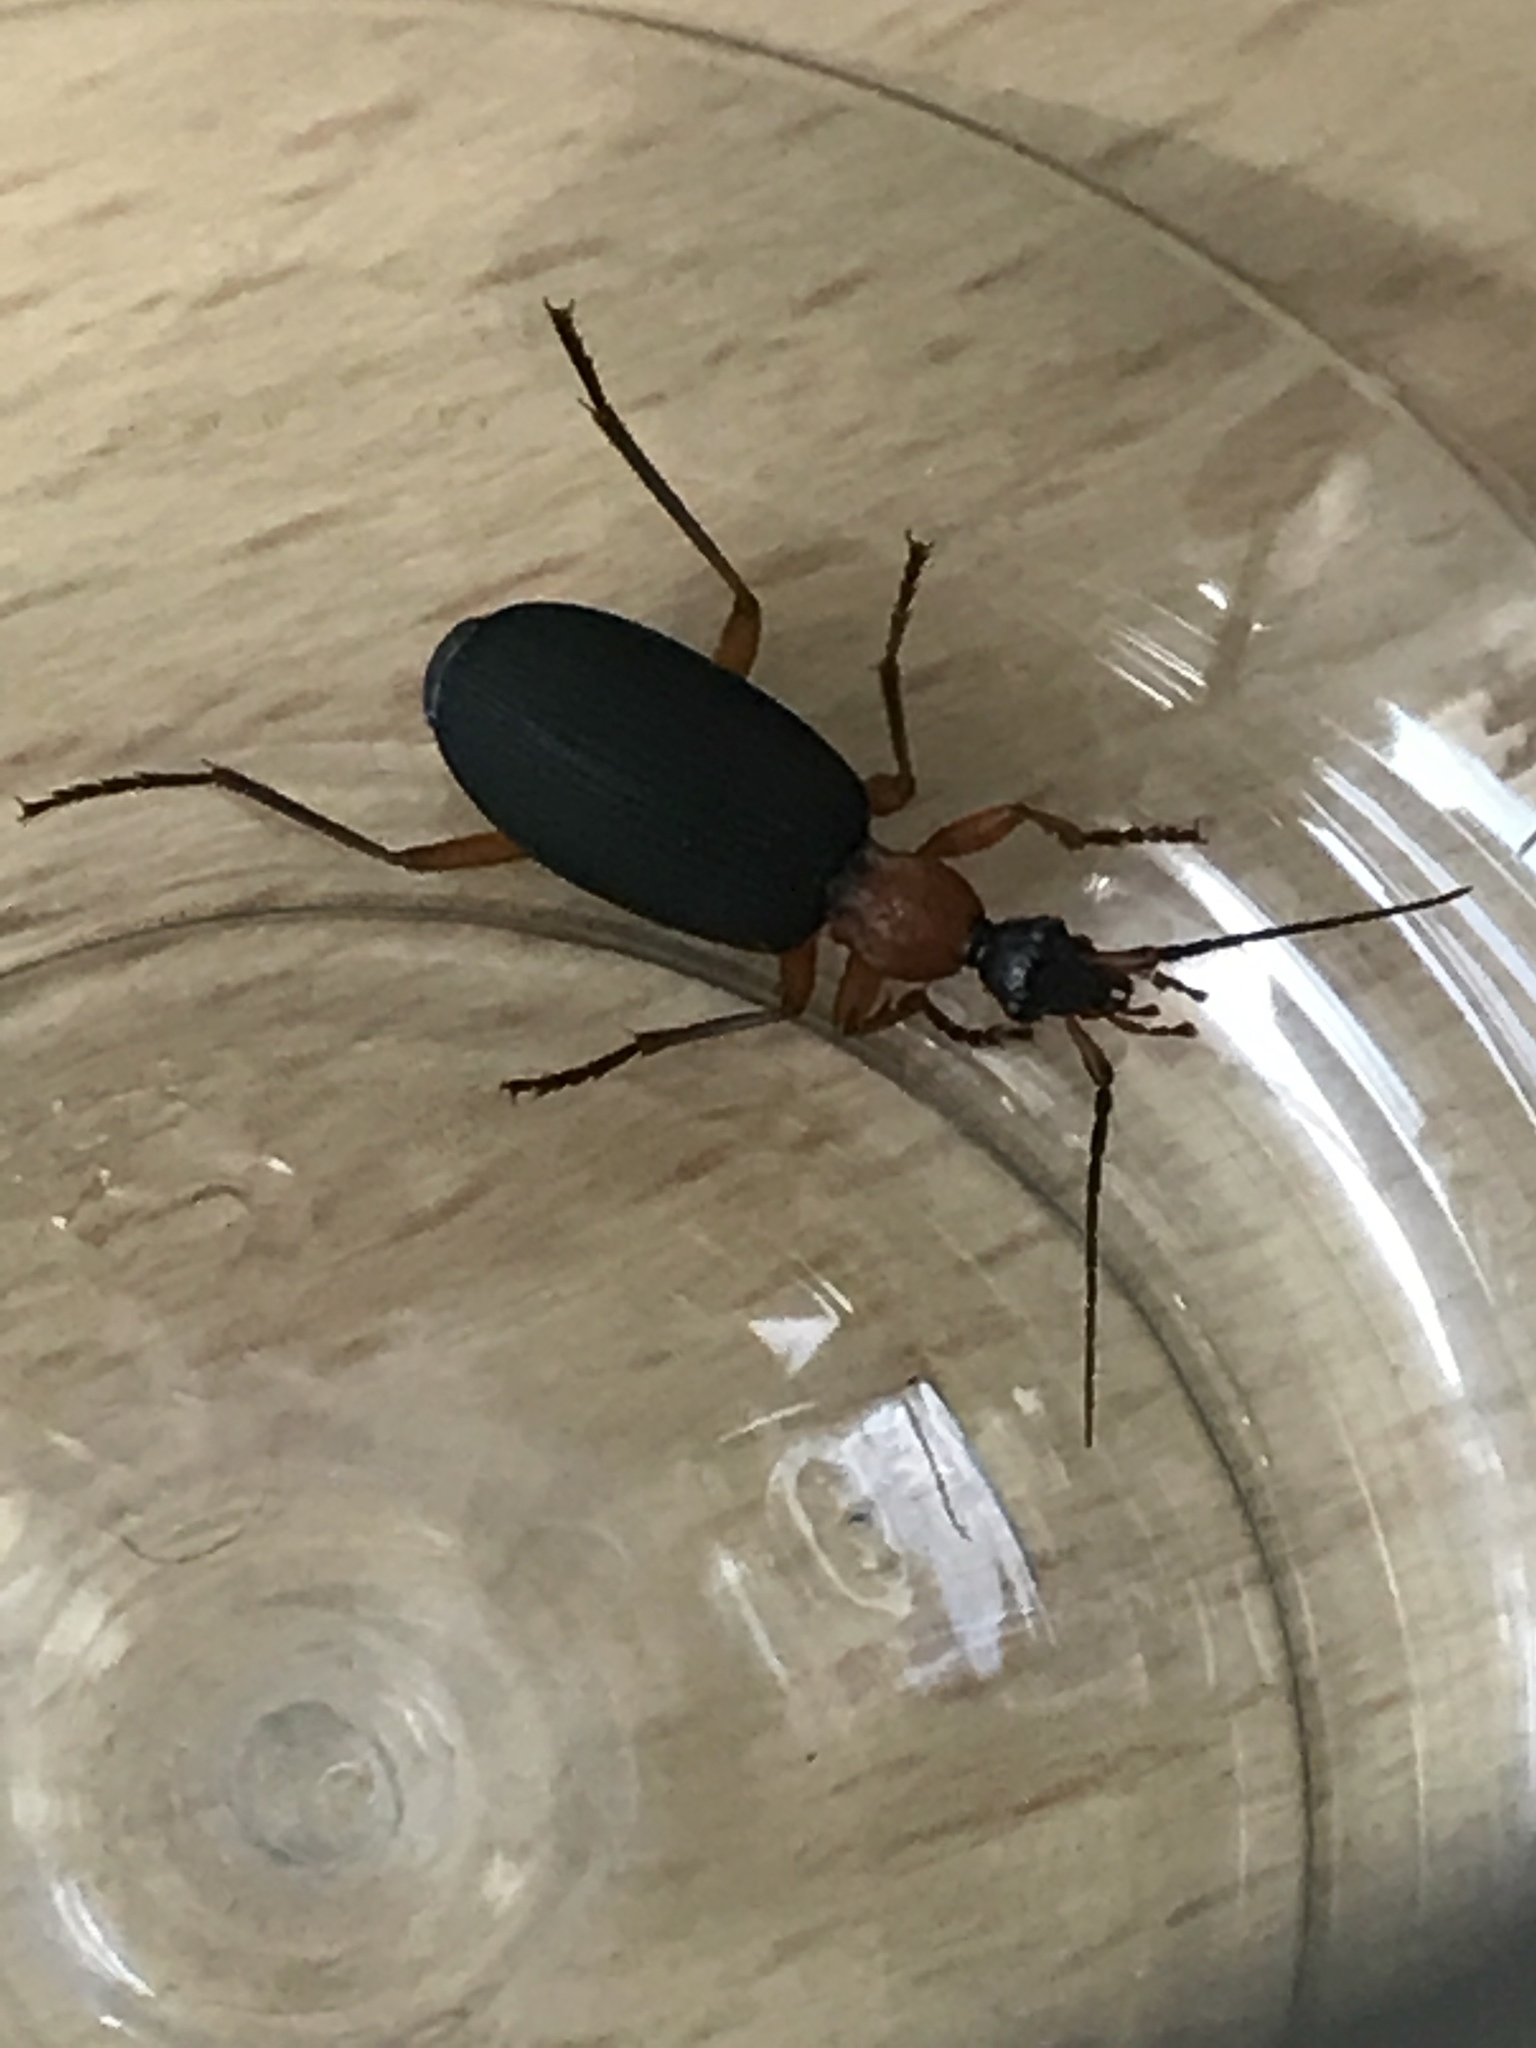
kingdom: Animalia
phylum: Arthropoda
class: Insecta
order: Coleoptera
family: Carabidae
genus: Galerita
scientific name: Galerita bicolor
